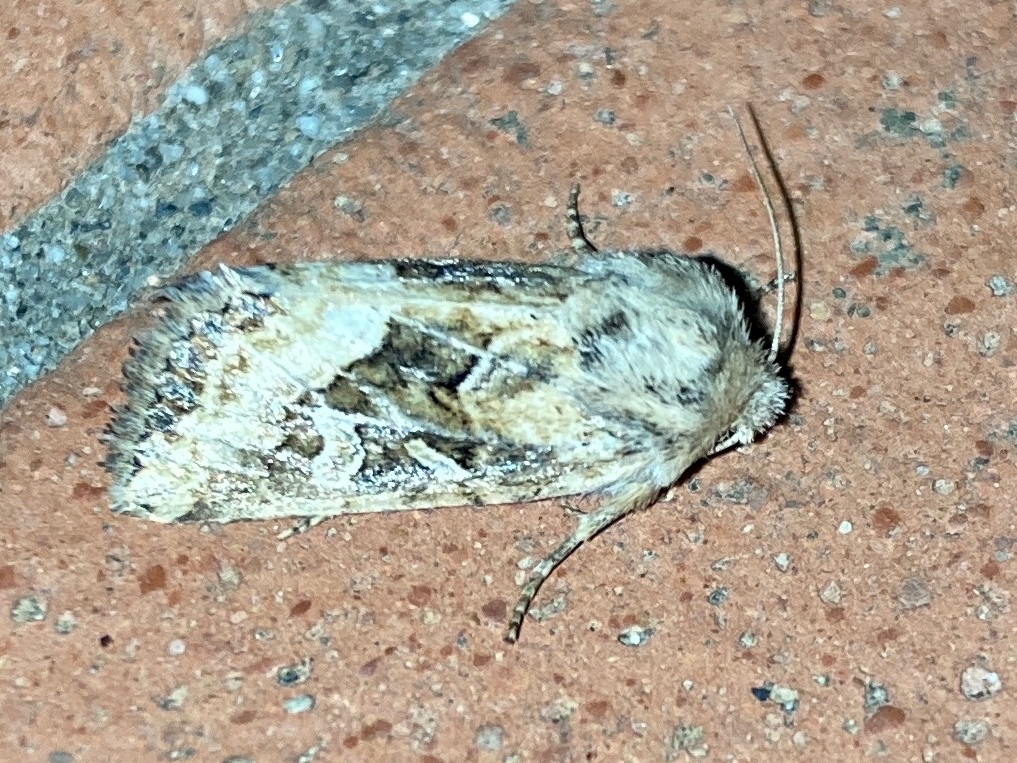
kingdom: Animalia
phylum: Arthropoda
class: Insecta
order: Lepidoptera
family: Noctuidae
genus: Luperina
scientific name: Luperina dumerilii
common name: Dumeril's rustic
